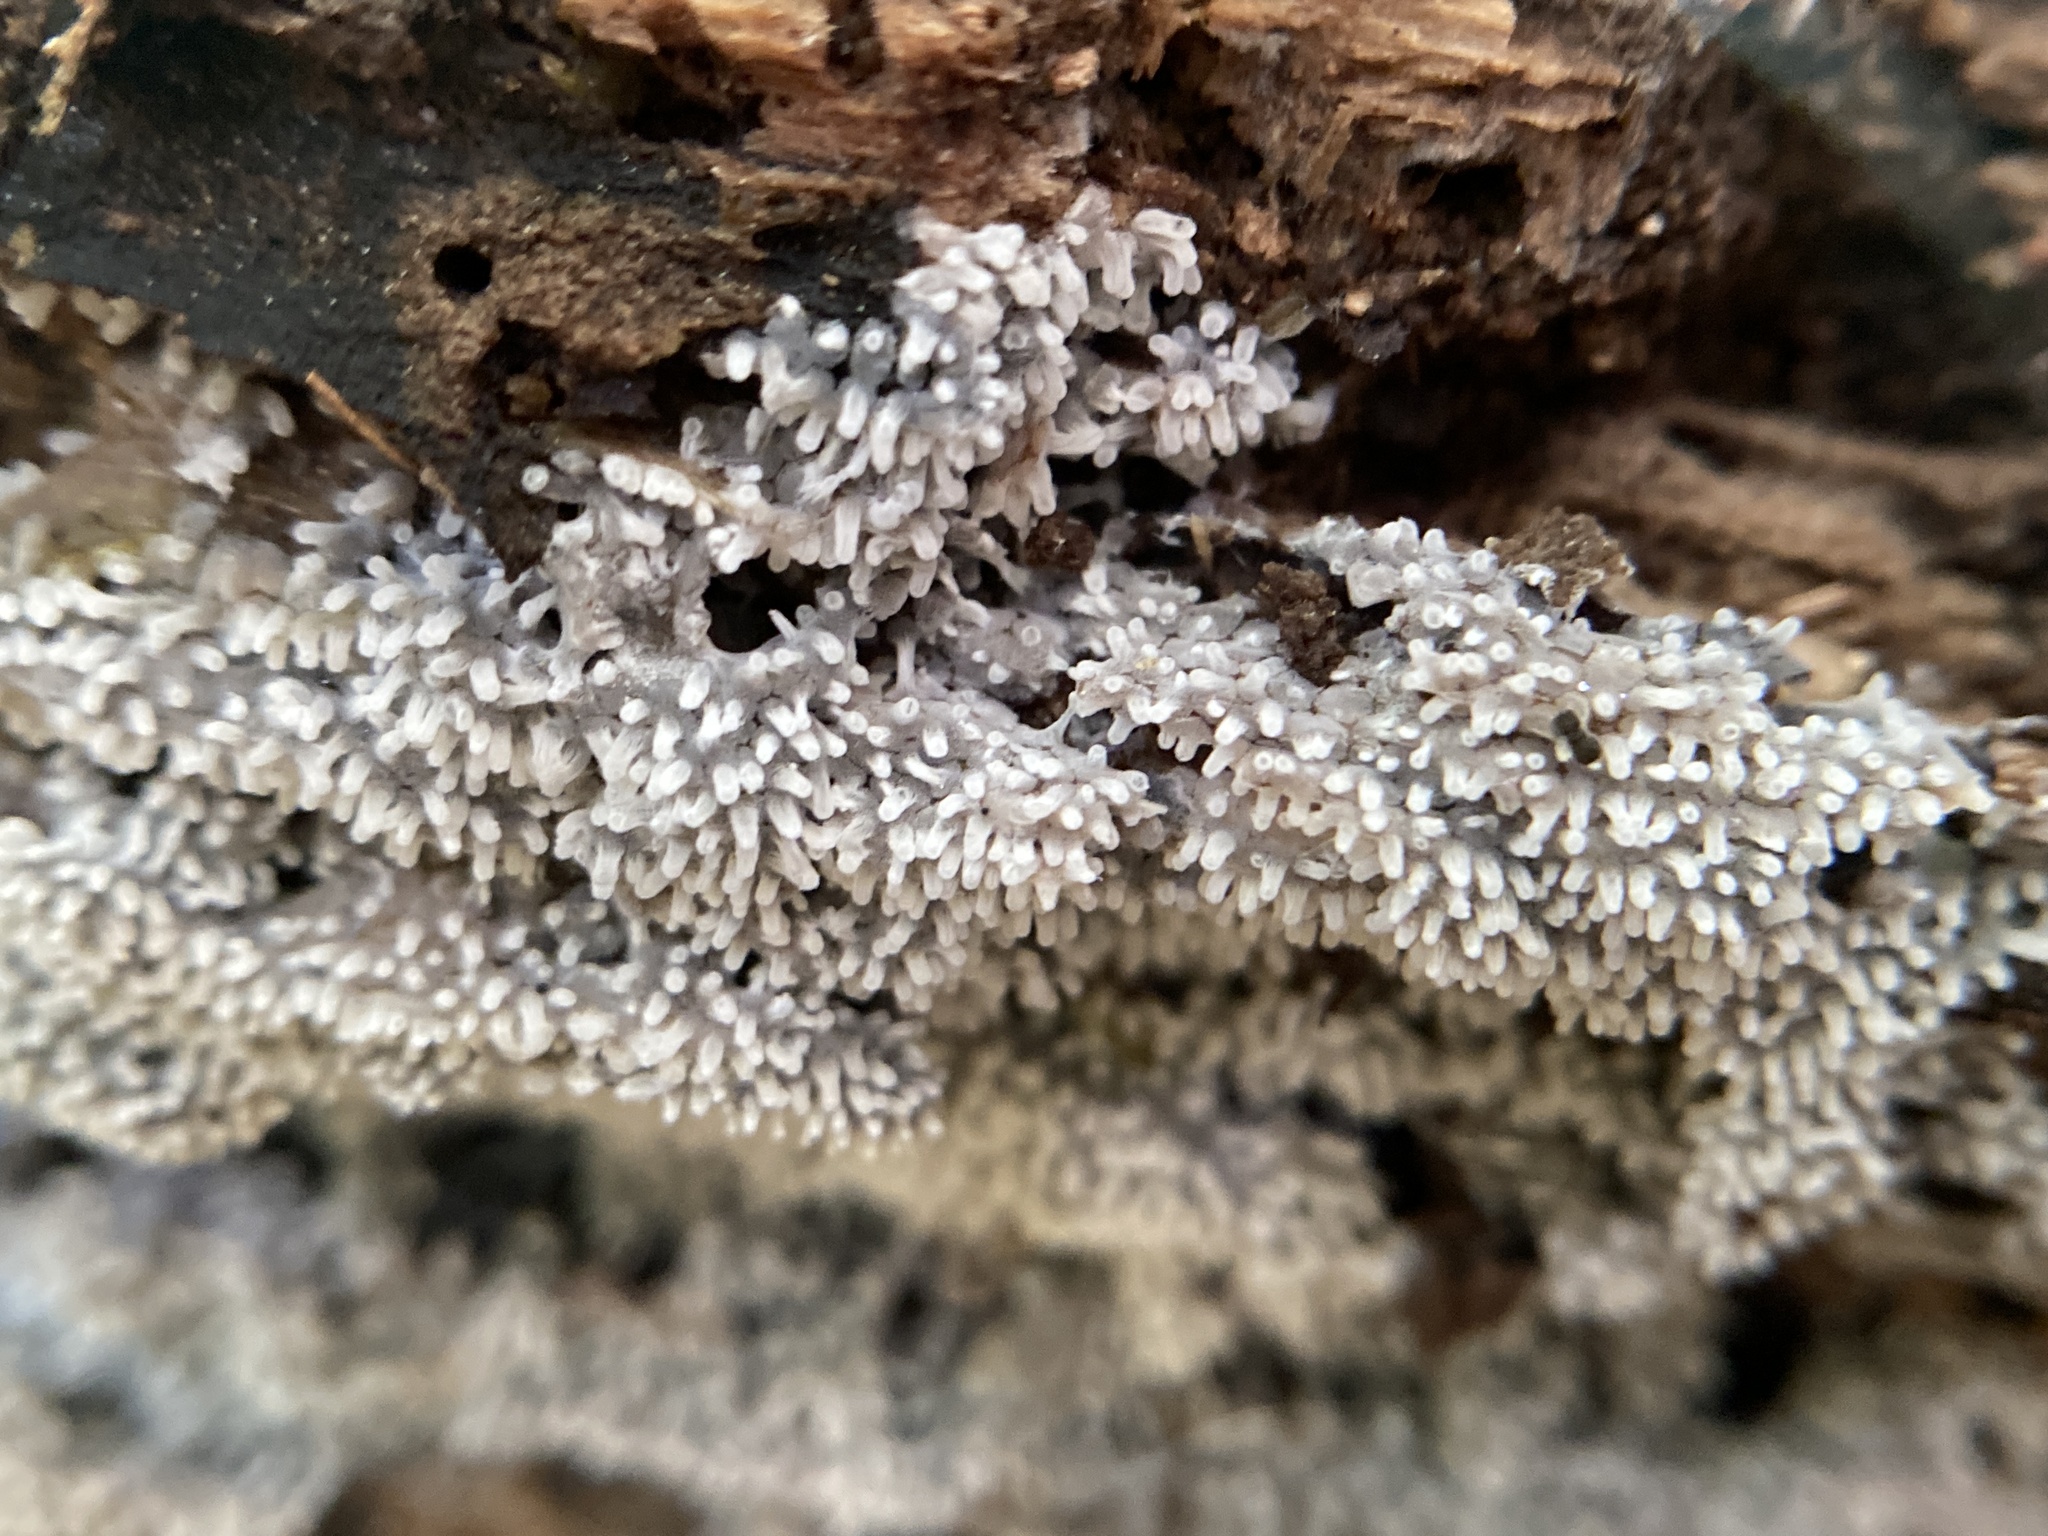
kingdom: Protozoa
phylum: Mycetozoa
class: Protosteliomycetes
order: Ceratiomyxales
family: Ceratiomyxaceae
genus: Ceratiomyxa
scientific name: Ceratiomyxa fruticulosa
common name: Honeycomb coral slime mold
